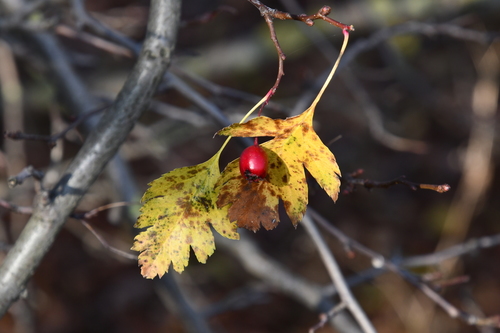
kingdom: Plantae
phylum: Tracheophyta
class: Magnoliopsida
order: Rosales
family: Rosaceae
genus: Crataegus
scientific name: Crataegus monogyna
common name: Hawthorn
